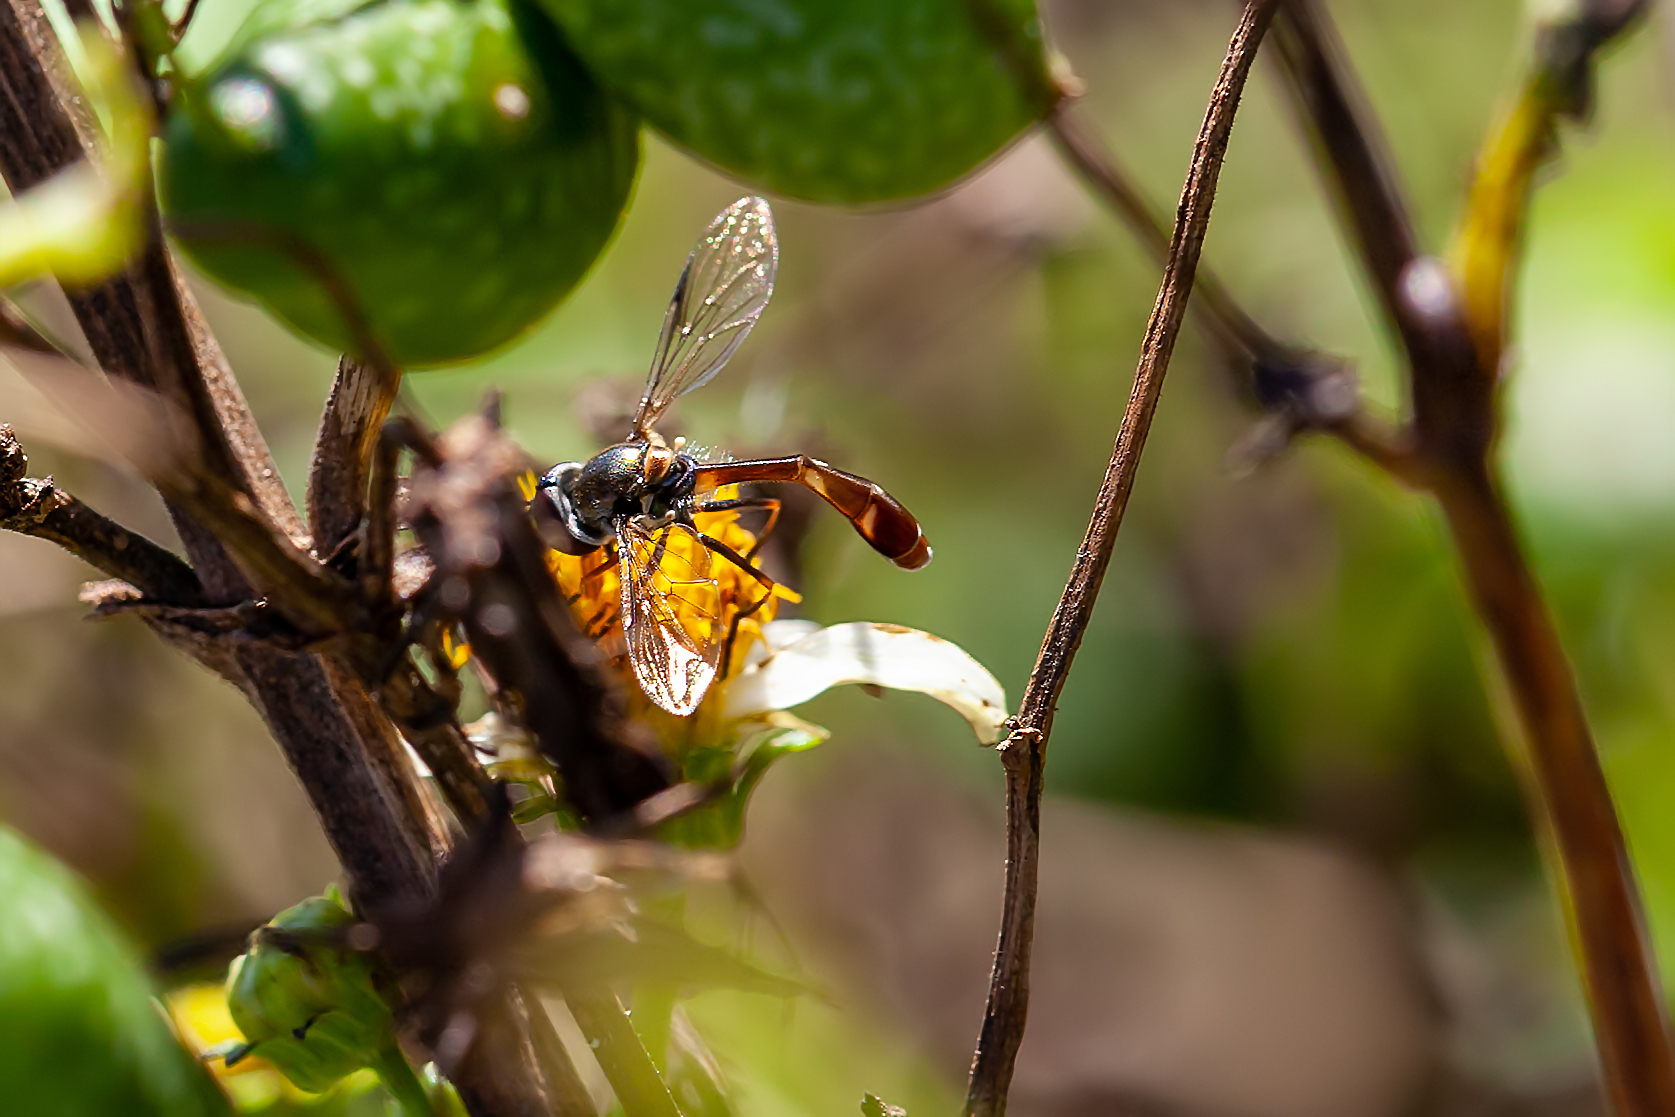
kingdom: Animalia
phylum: Arthropoda
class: Insecta
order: Diptera
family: Syrphidae
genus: Dioprosopa
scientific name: Dioprosopa clavatus
